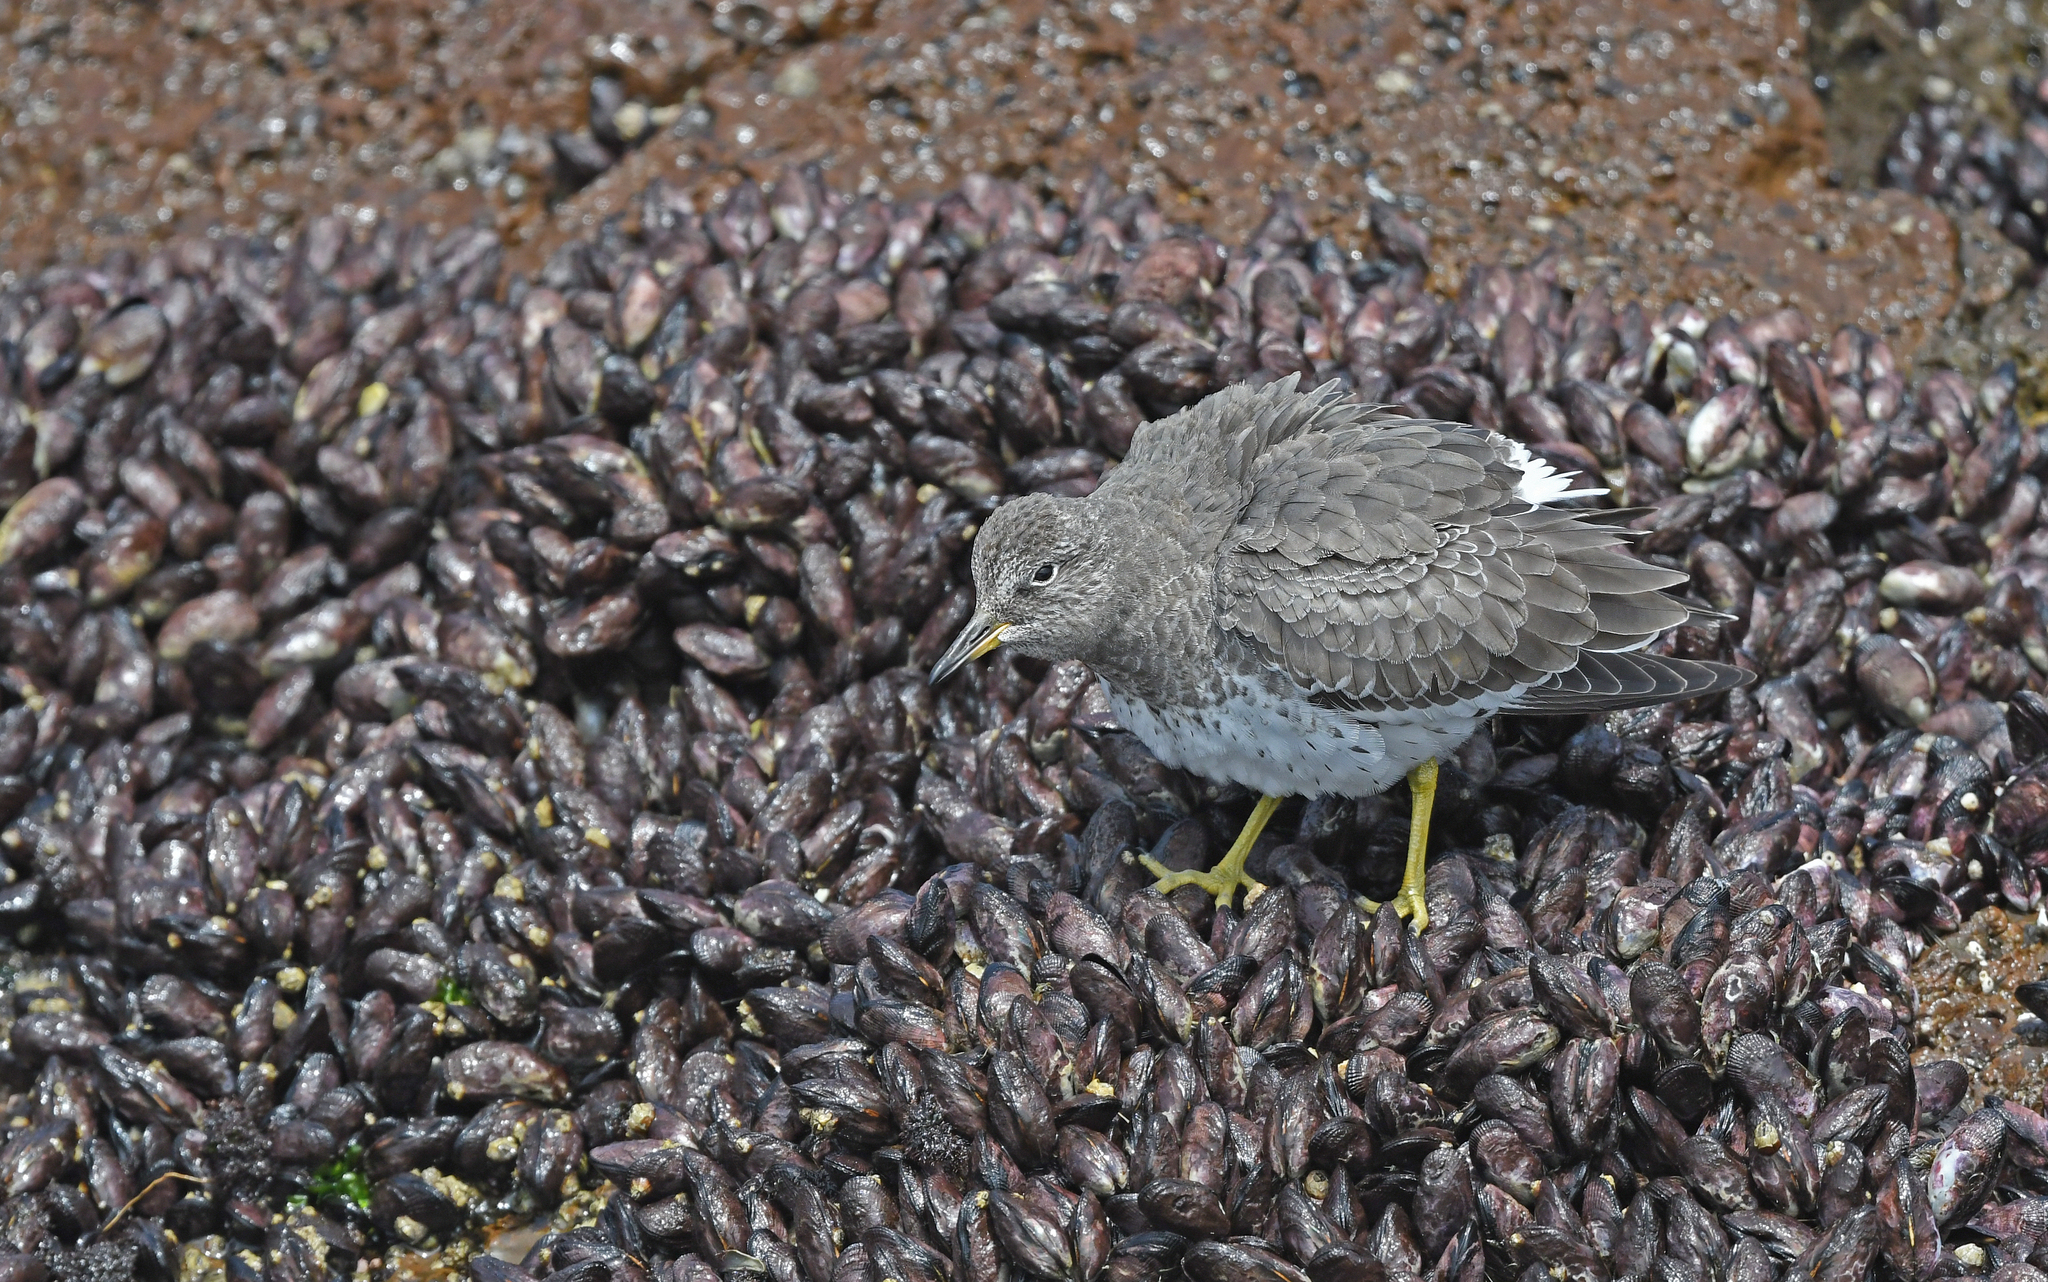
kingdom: Animalia
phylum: Chordata
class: Aves
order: Charadriiformes
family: Scolopacidae
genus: Calidris
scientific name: Calidris virgata
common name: Surfbird
